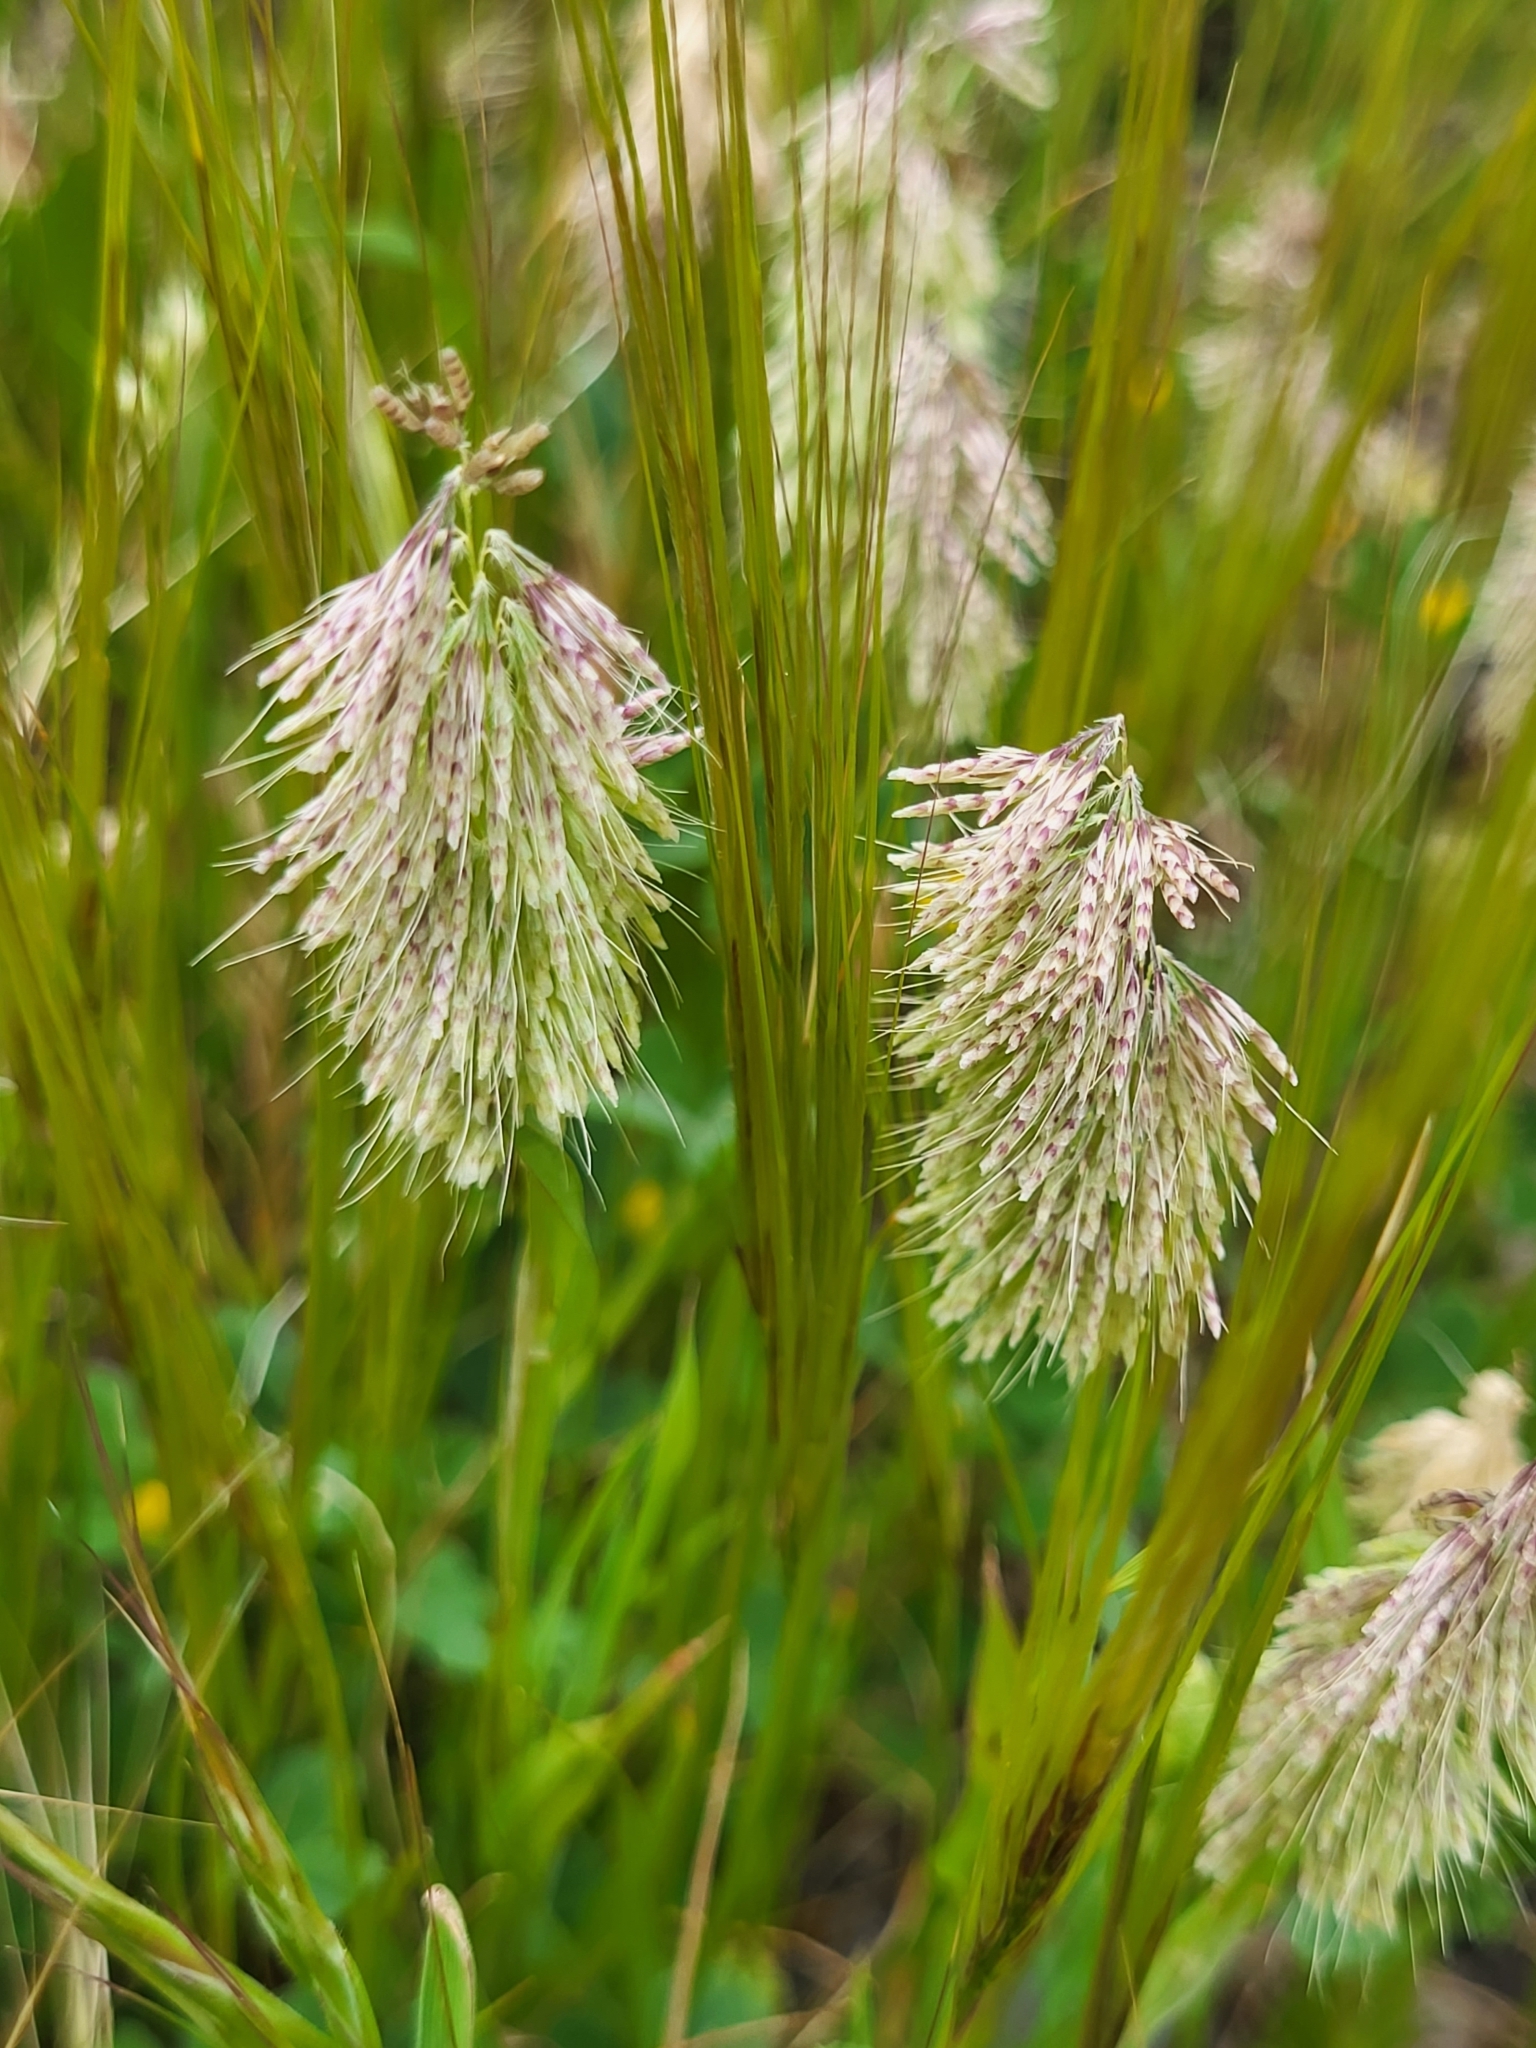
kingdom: Plantae
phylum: Tracheophyta
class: Liliopsida
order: Poales
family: Poaceae
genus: Lamarckia
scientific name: Lamarckia aurea
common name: Golden dog's-tail
